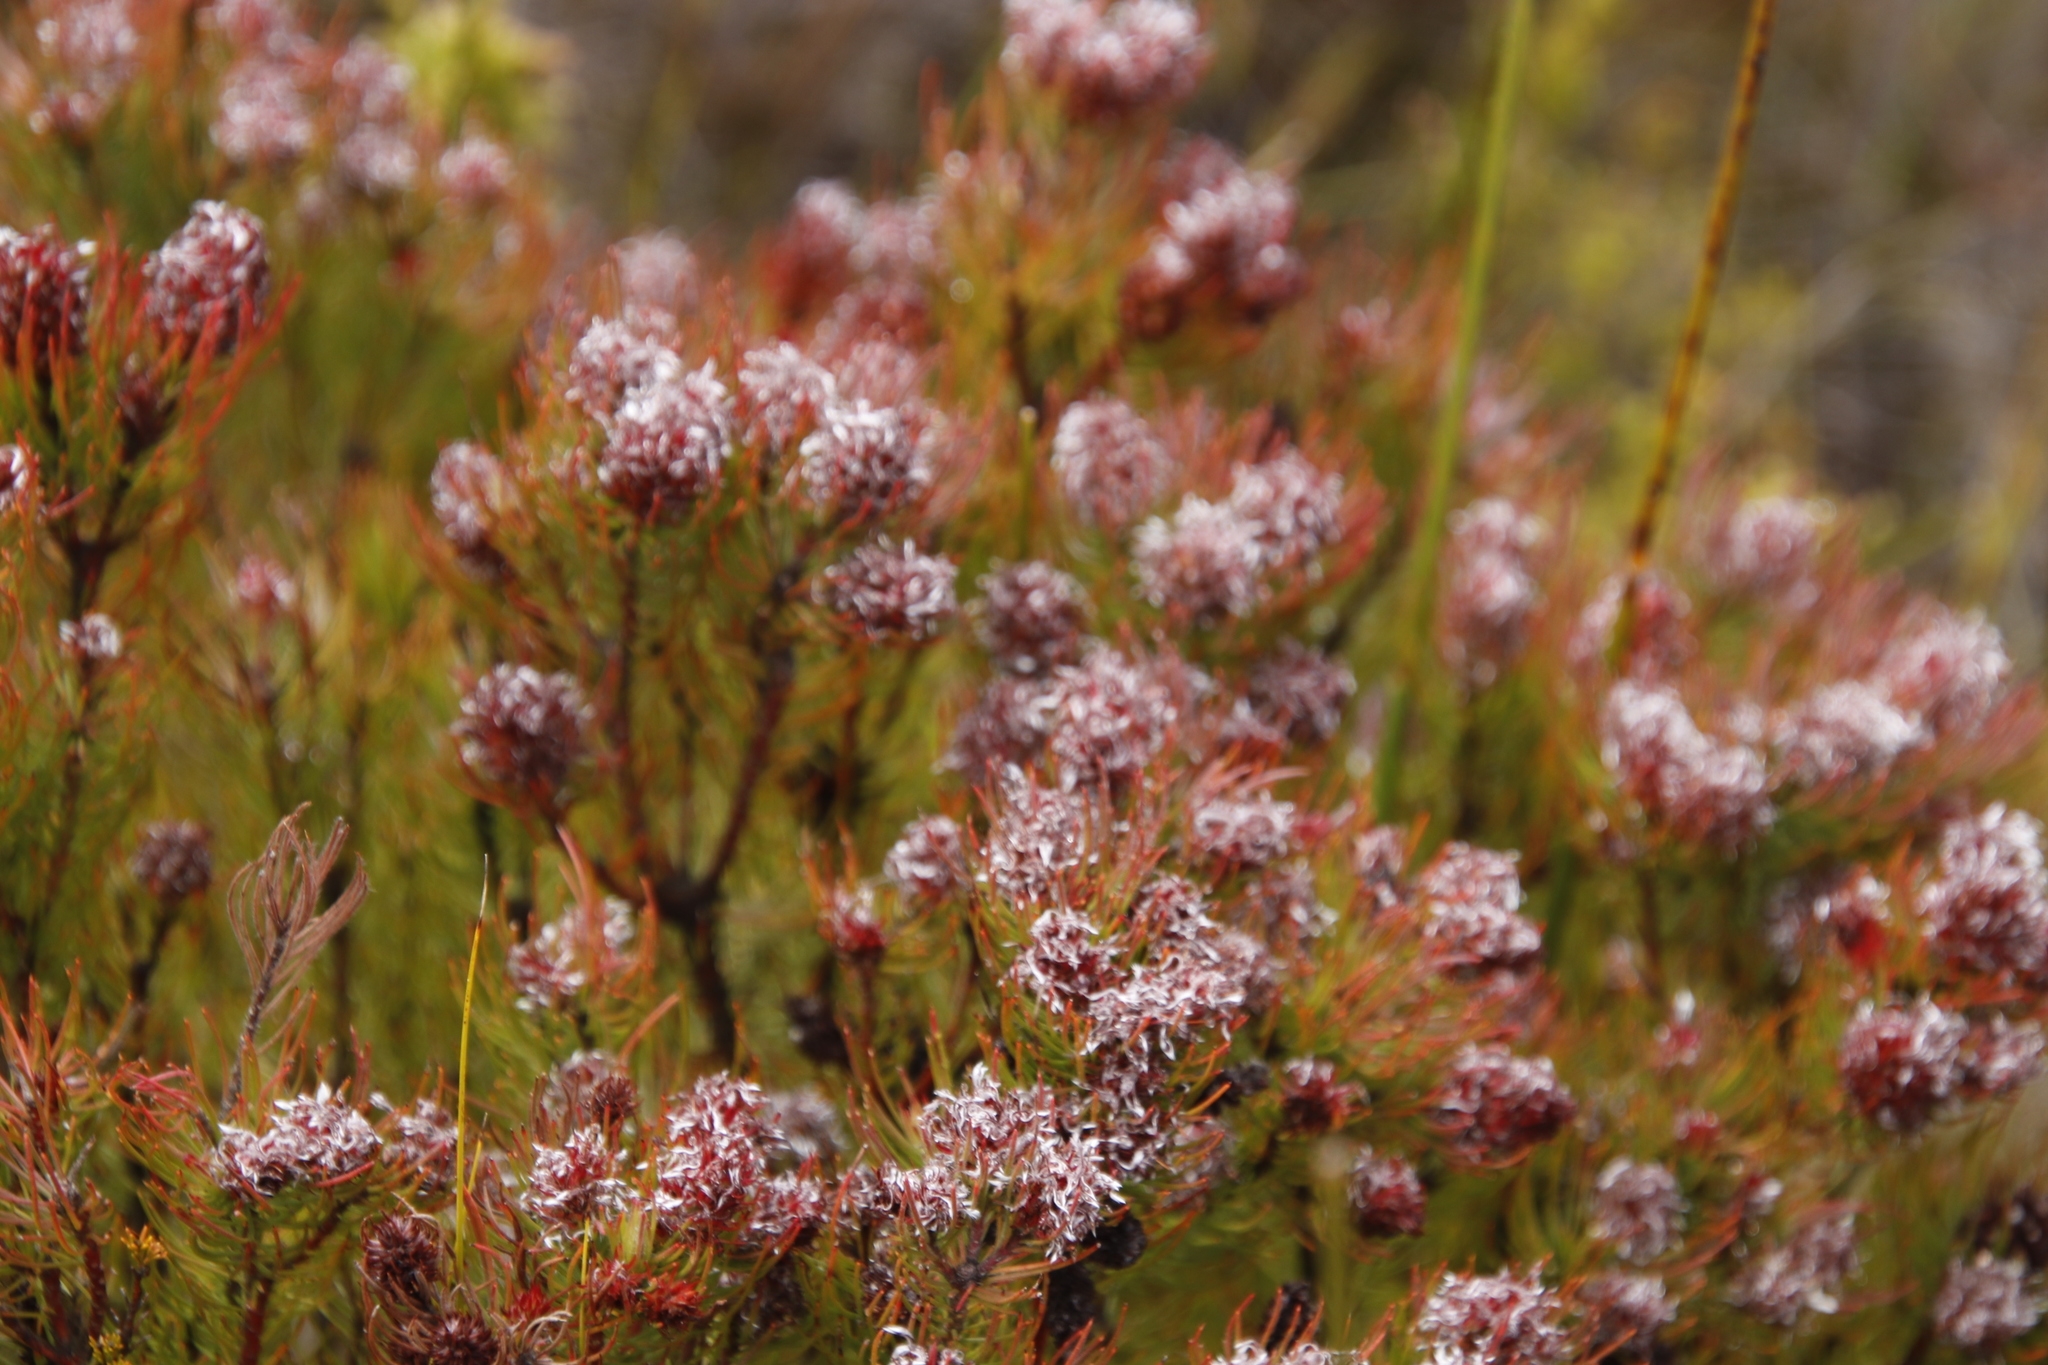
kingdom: Plantae
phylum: Tracheophyta
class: Magnoliopsida
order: Proteales
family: Proteaceae
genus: Spatalla
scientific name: Spatalla setacea
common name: Needle-leaf spoon
